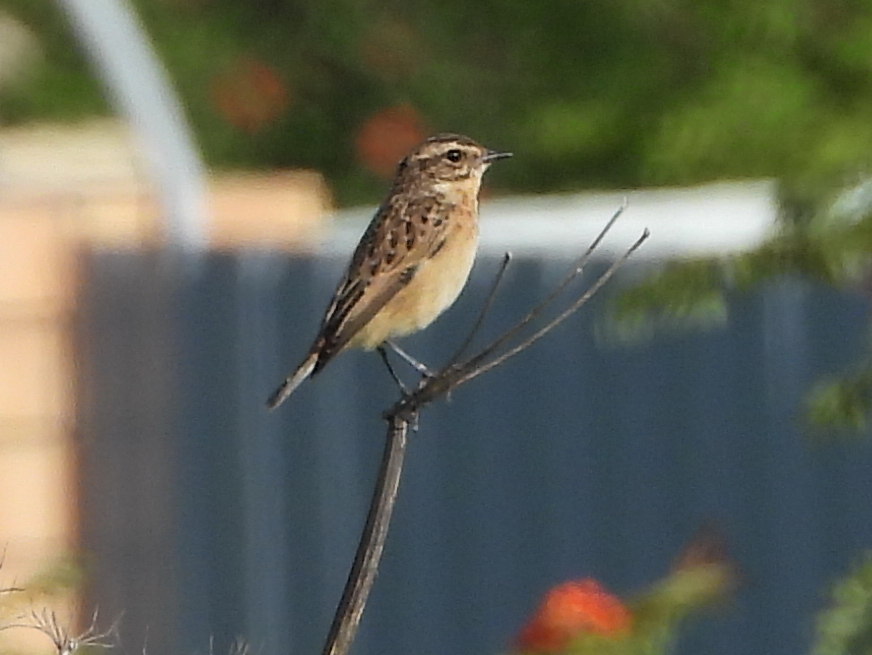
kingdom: Animalia
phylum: Chordata
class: Aves
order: Passeriformes
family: Muscicapidae
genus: Saxicola
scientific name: Saxicola rubetra
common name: Whinchat
